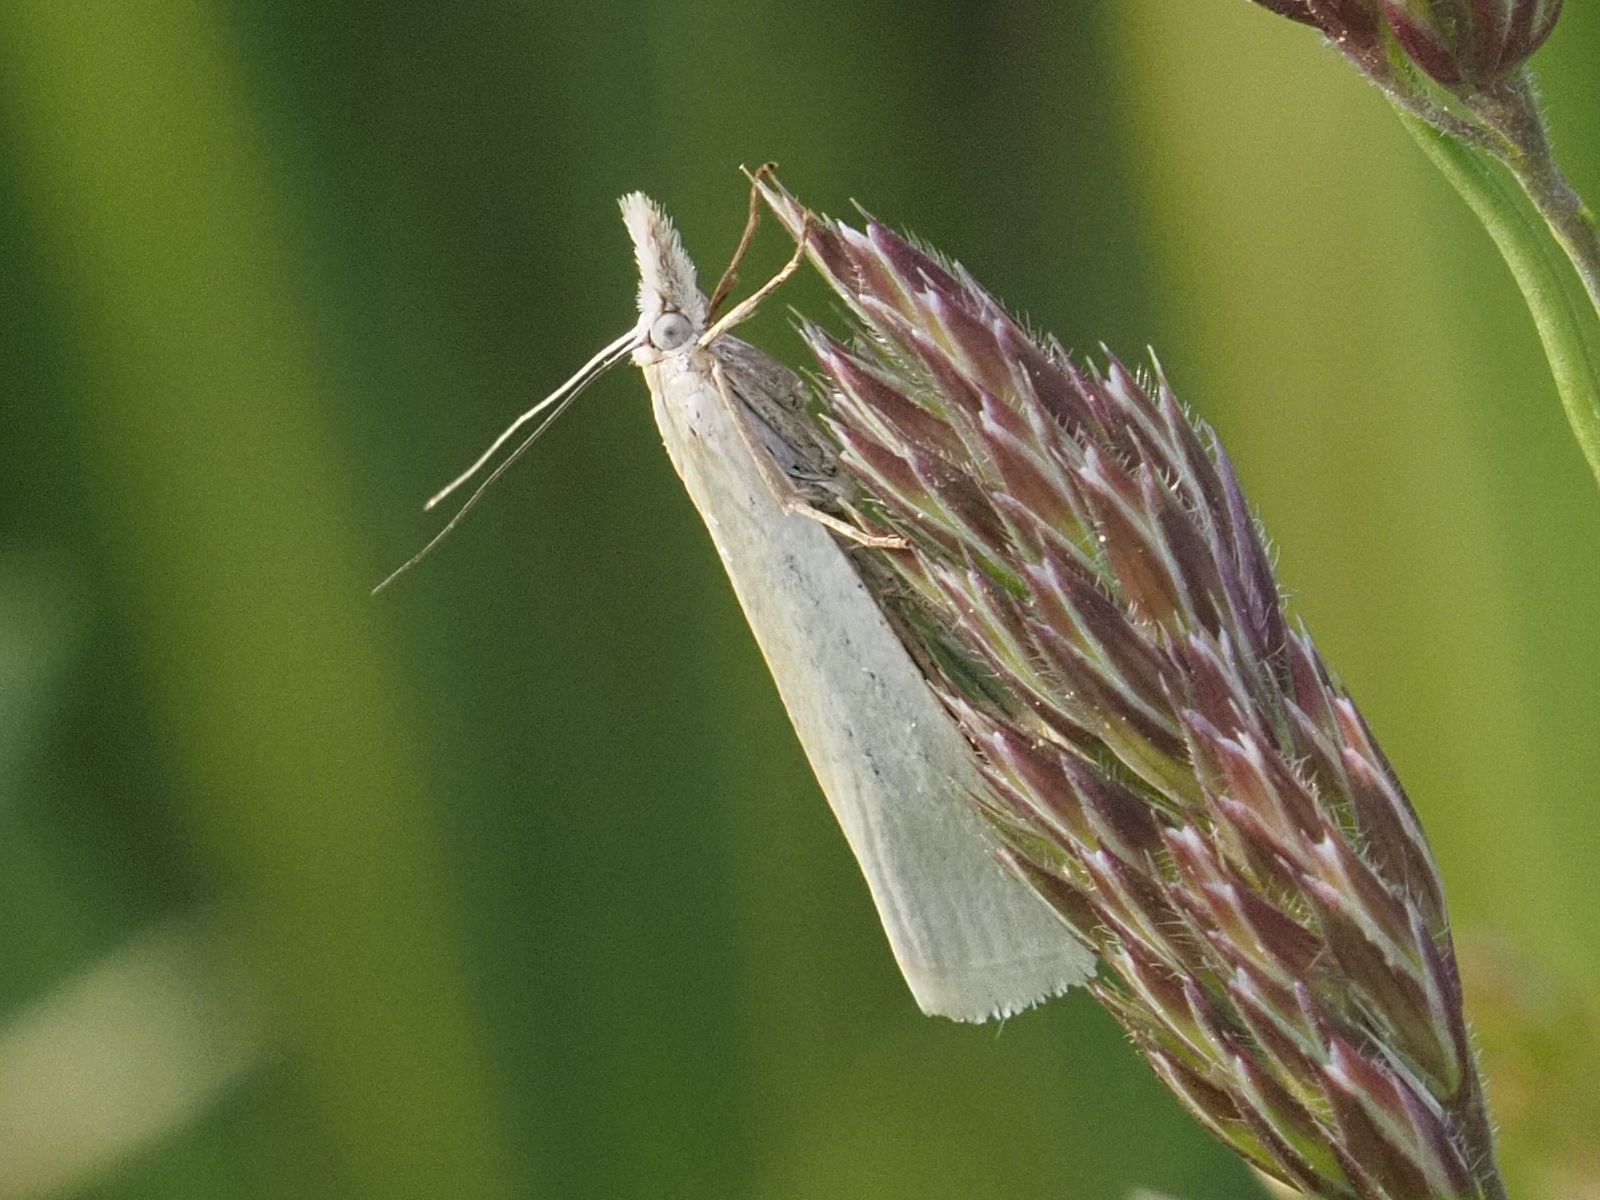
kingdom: Animalia
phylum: Arthropoda
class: Insecta
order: Lepidoptera
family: Crambidae
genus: Crambus
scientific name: Crambus perlellus
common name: Yellow satin veneer
